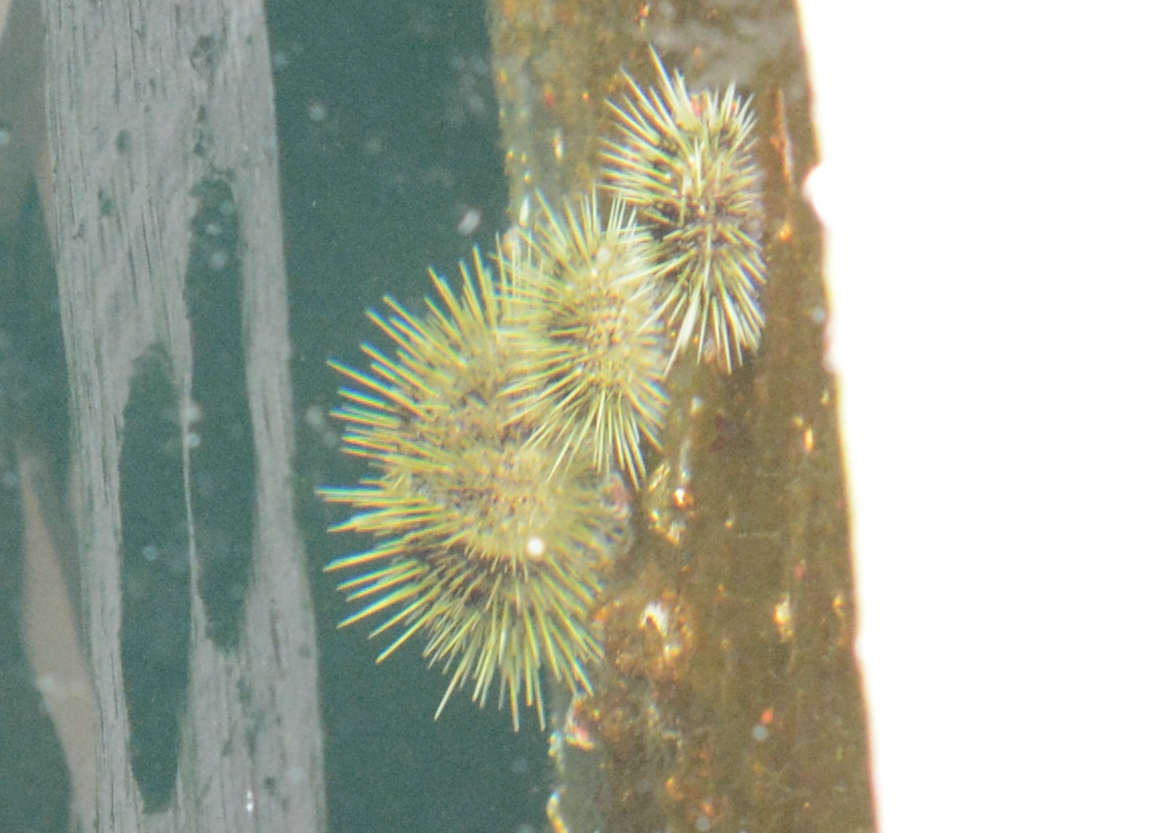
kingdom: Animalia
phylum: Echinodermata
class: Echinoidea
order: Camarodonta
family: Strongylocentrotidae
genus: Strongylocentrotus
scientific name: Strongylocentrotus droebachiensis
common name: Northern sea urchin
